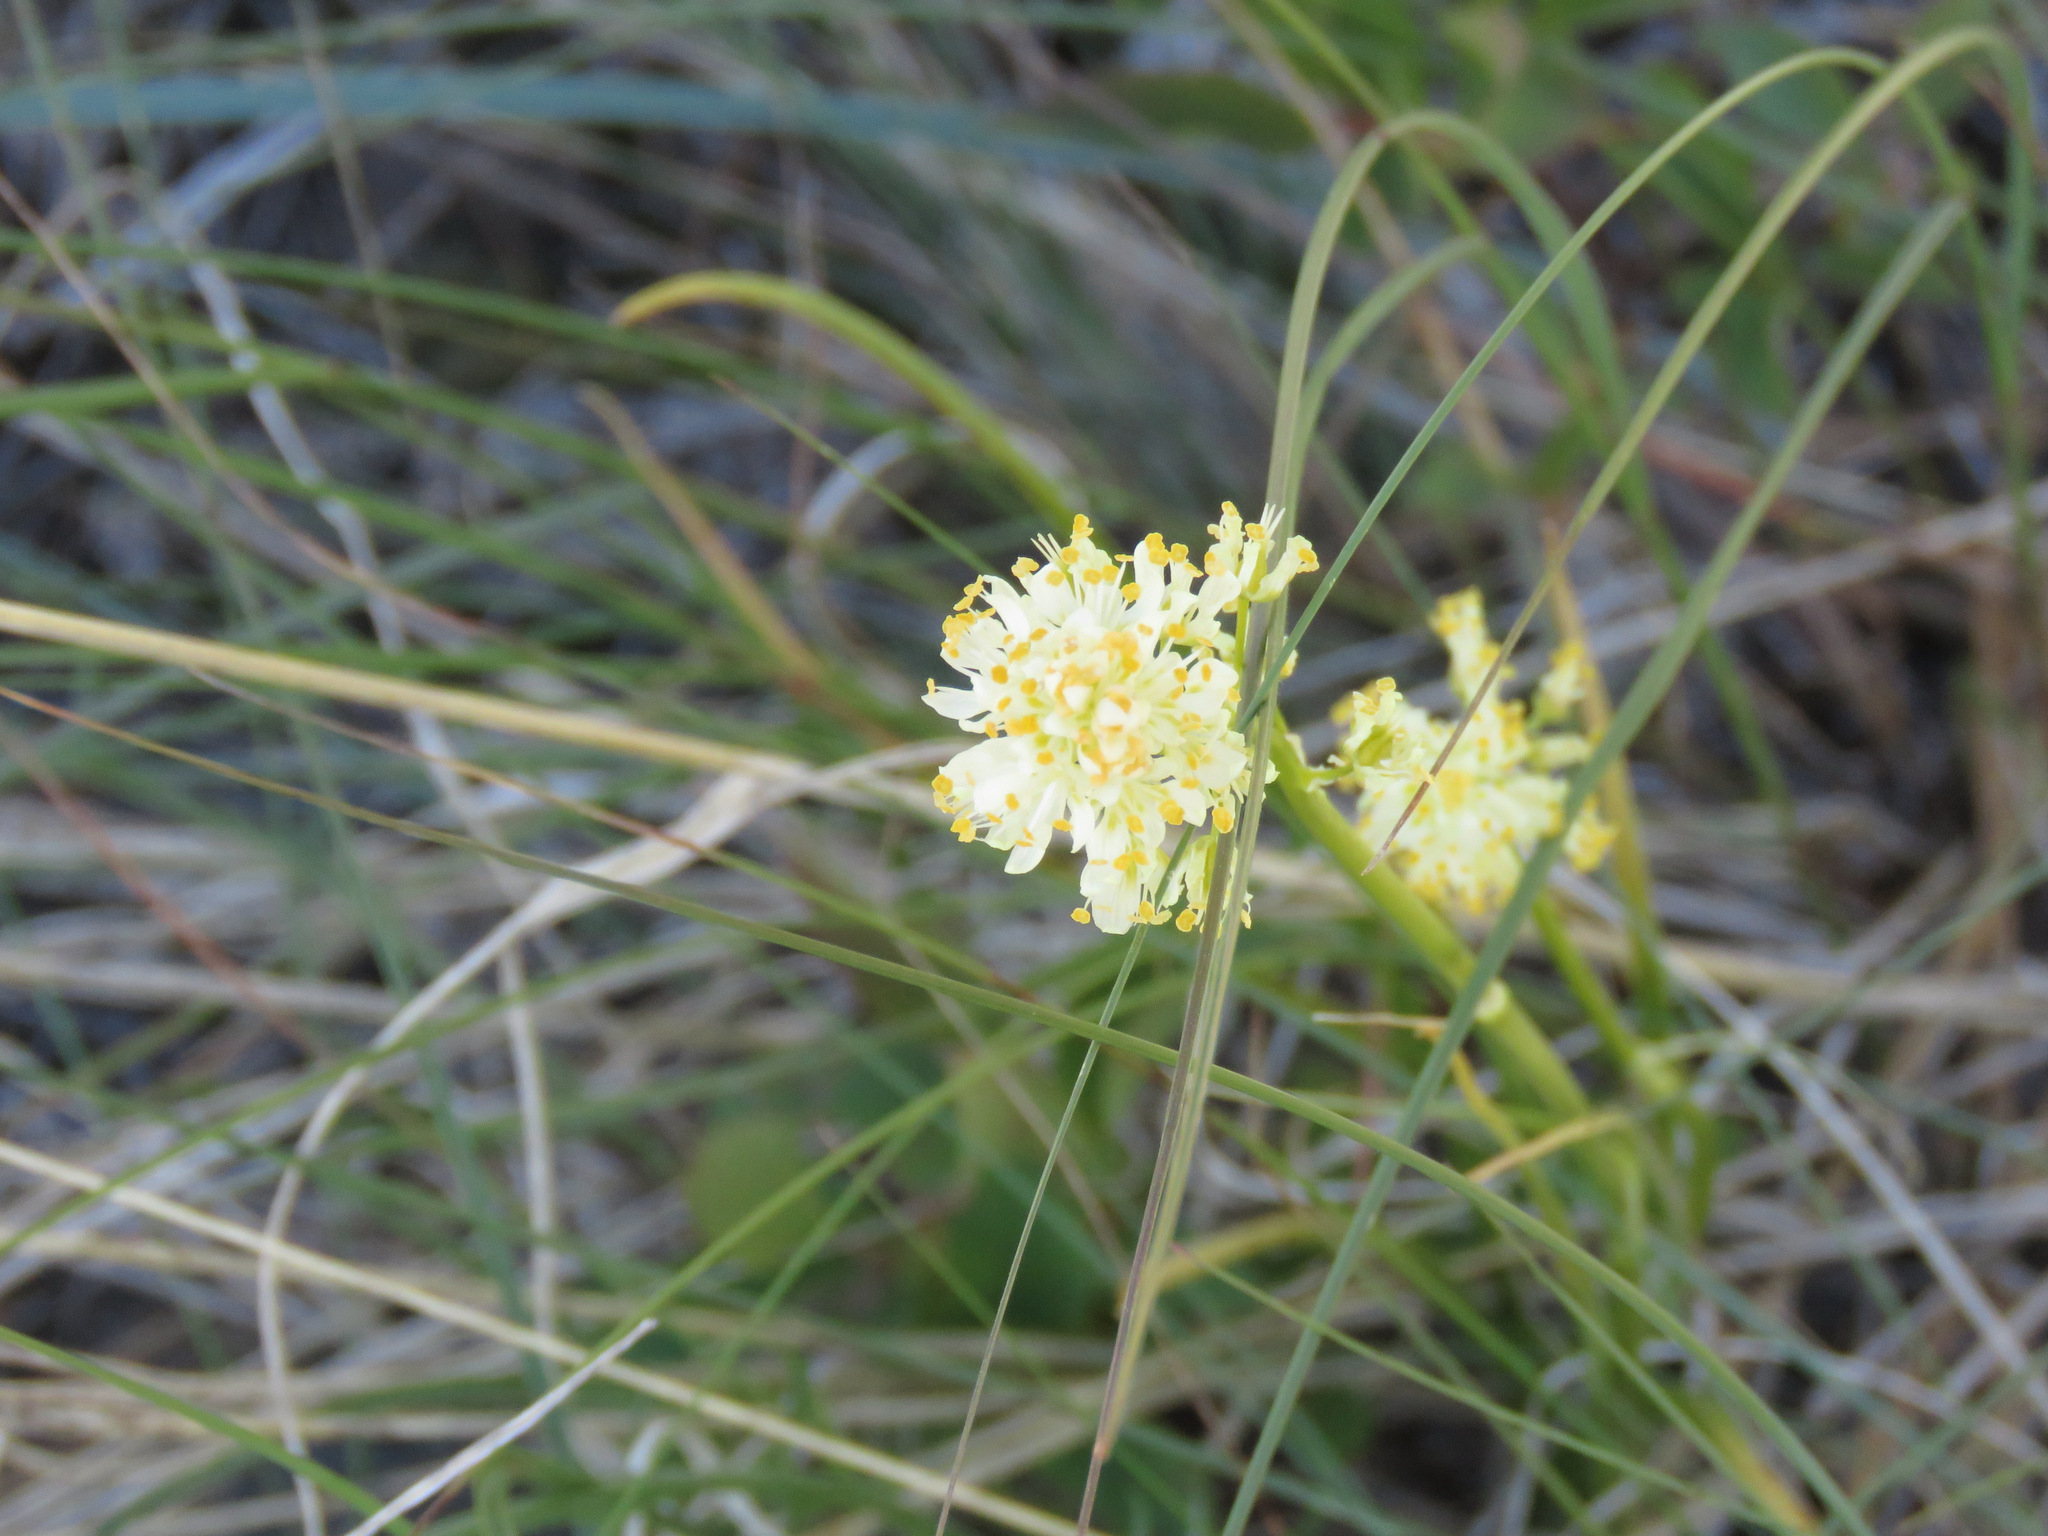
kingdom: Plantae
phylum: Tracheophyta
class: Liliopsida
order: Liliales
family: Melanthiaceae
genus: Toxicoscordion
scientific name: Toxicoscordion venenosum
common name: Meadow death camas
